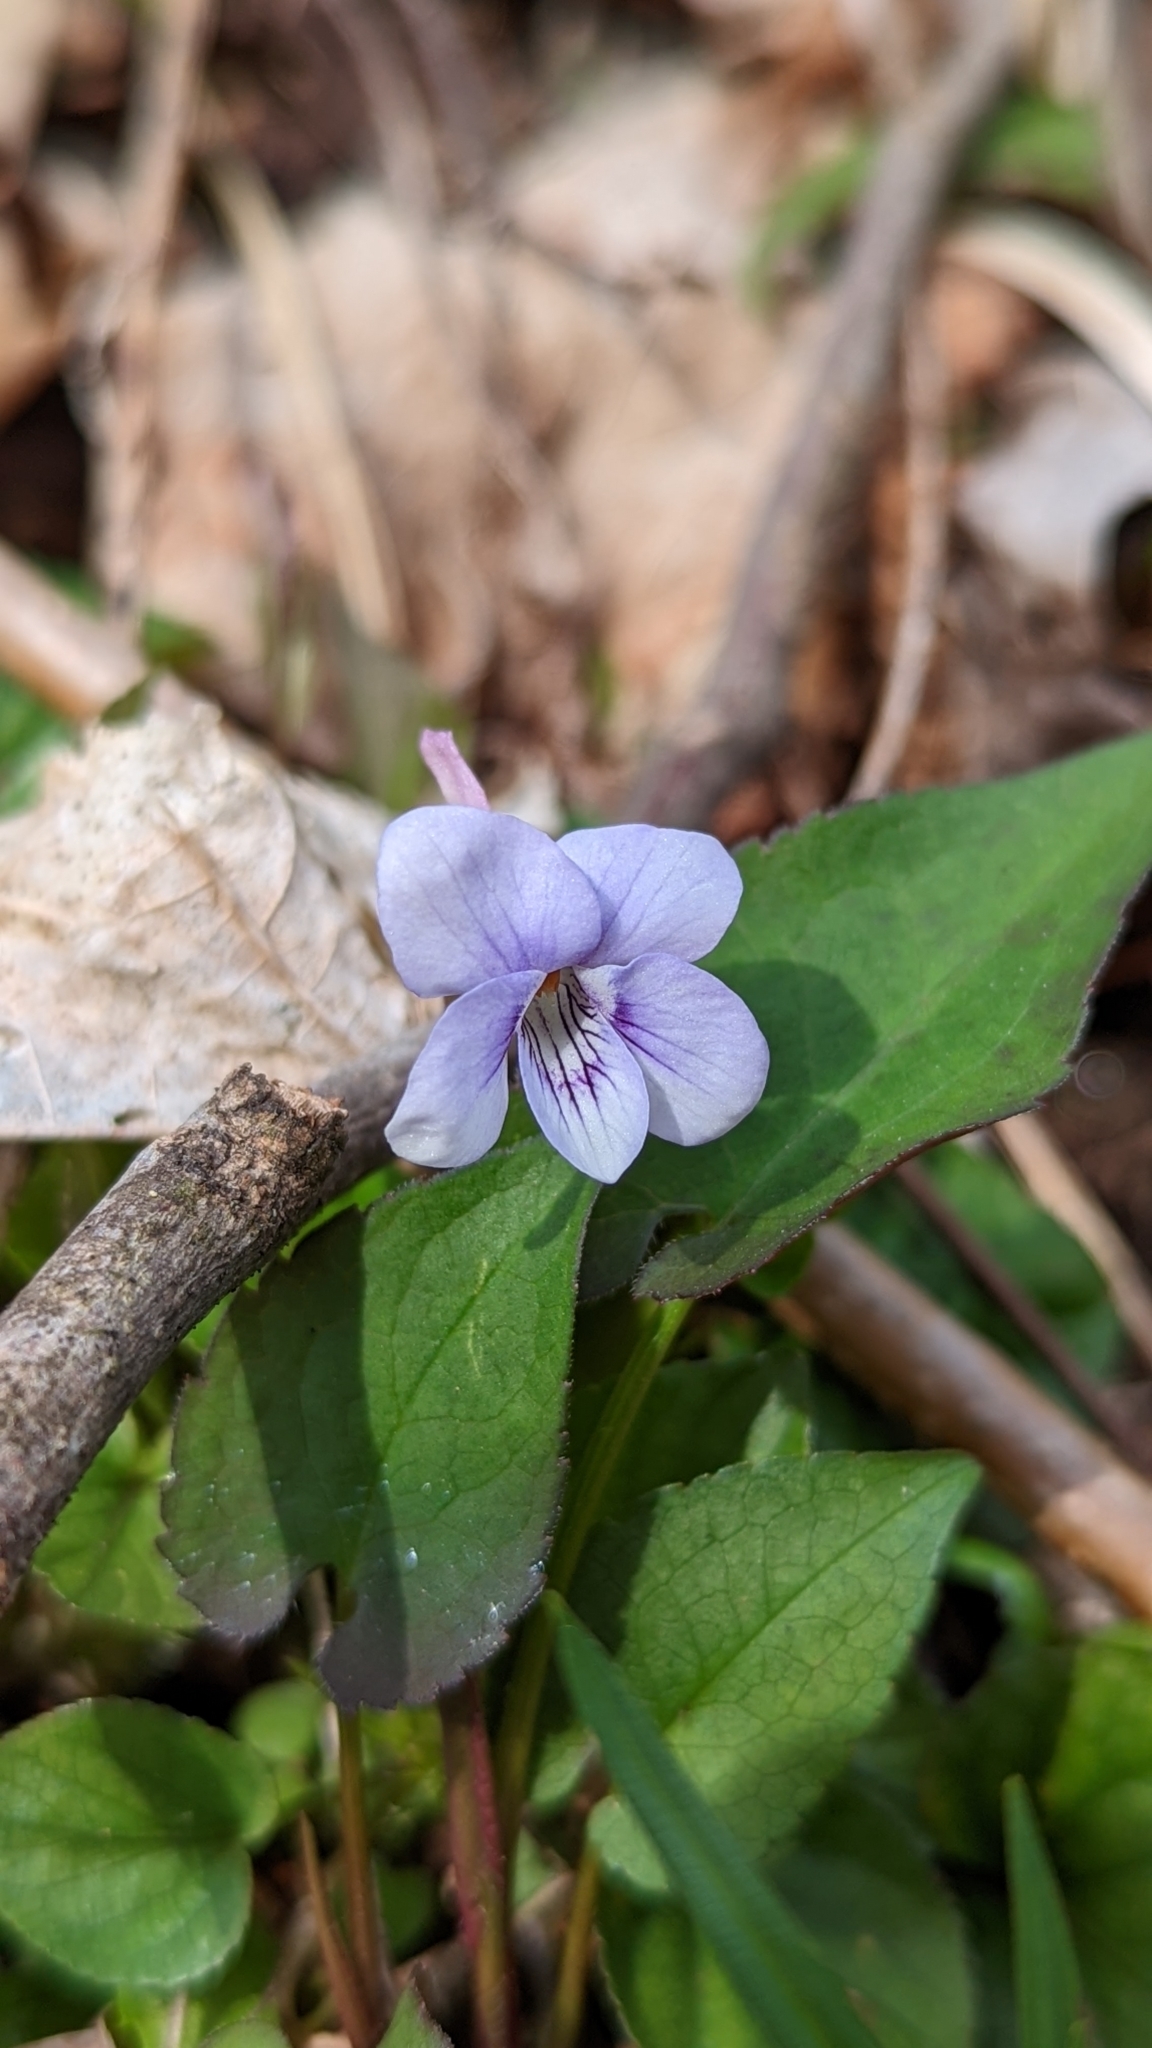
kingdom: Plantae
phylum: Tracheophyta
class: Magnoliopsida
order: Malpighiales
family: Violaceae
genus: Viola
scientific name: Viola rostrata
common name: Long-spur violet
